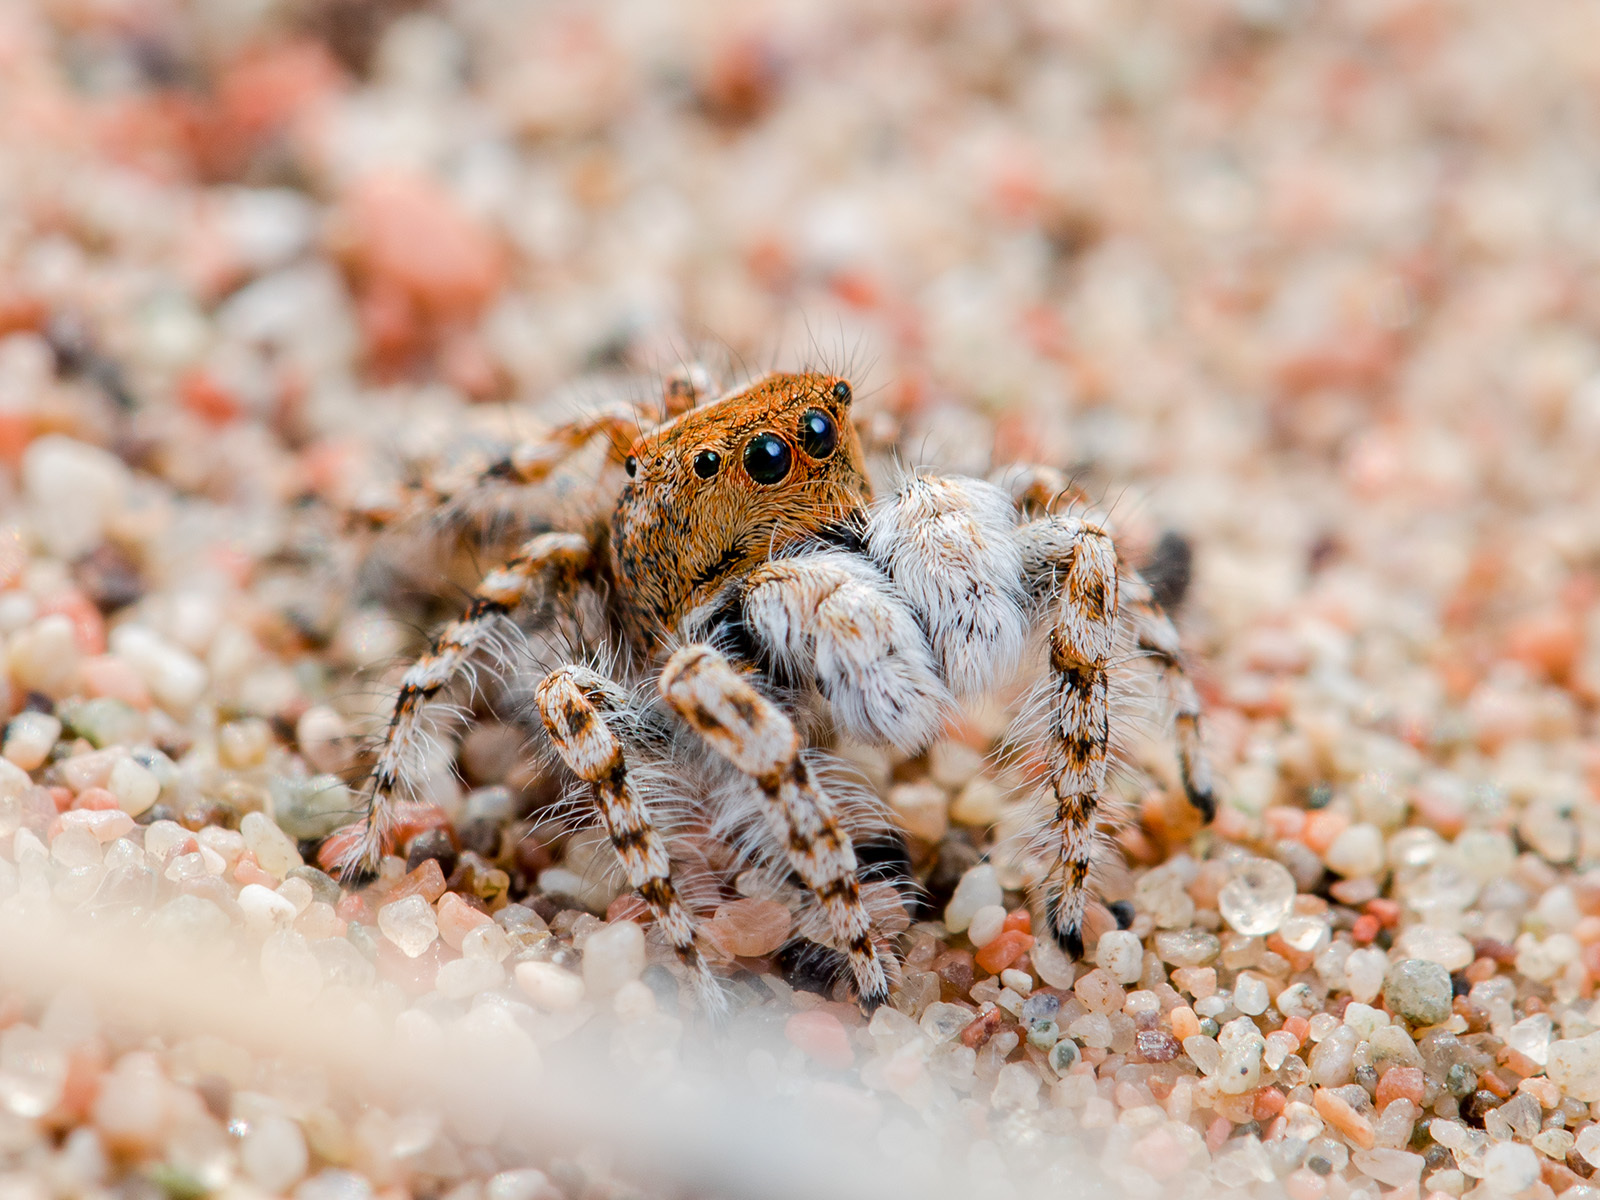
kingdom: Animalia
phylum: Arthropoda
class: Arachnida
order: Araneae
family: Salticidae
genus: Yllenus
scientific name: Yllenus uiguricus
